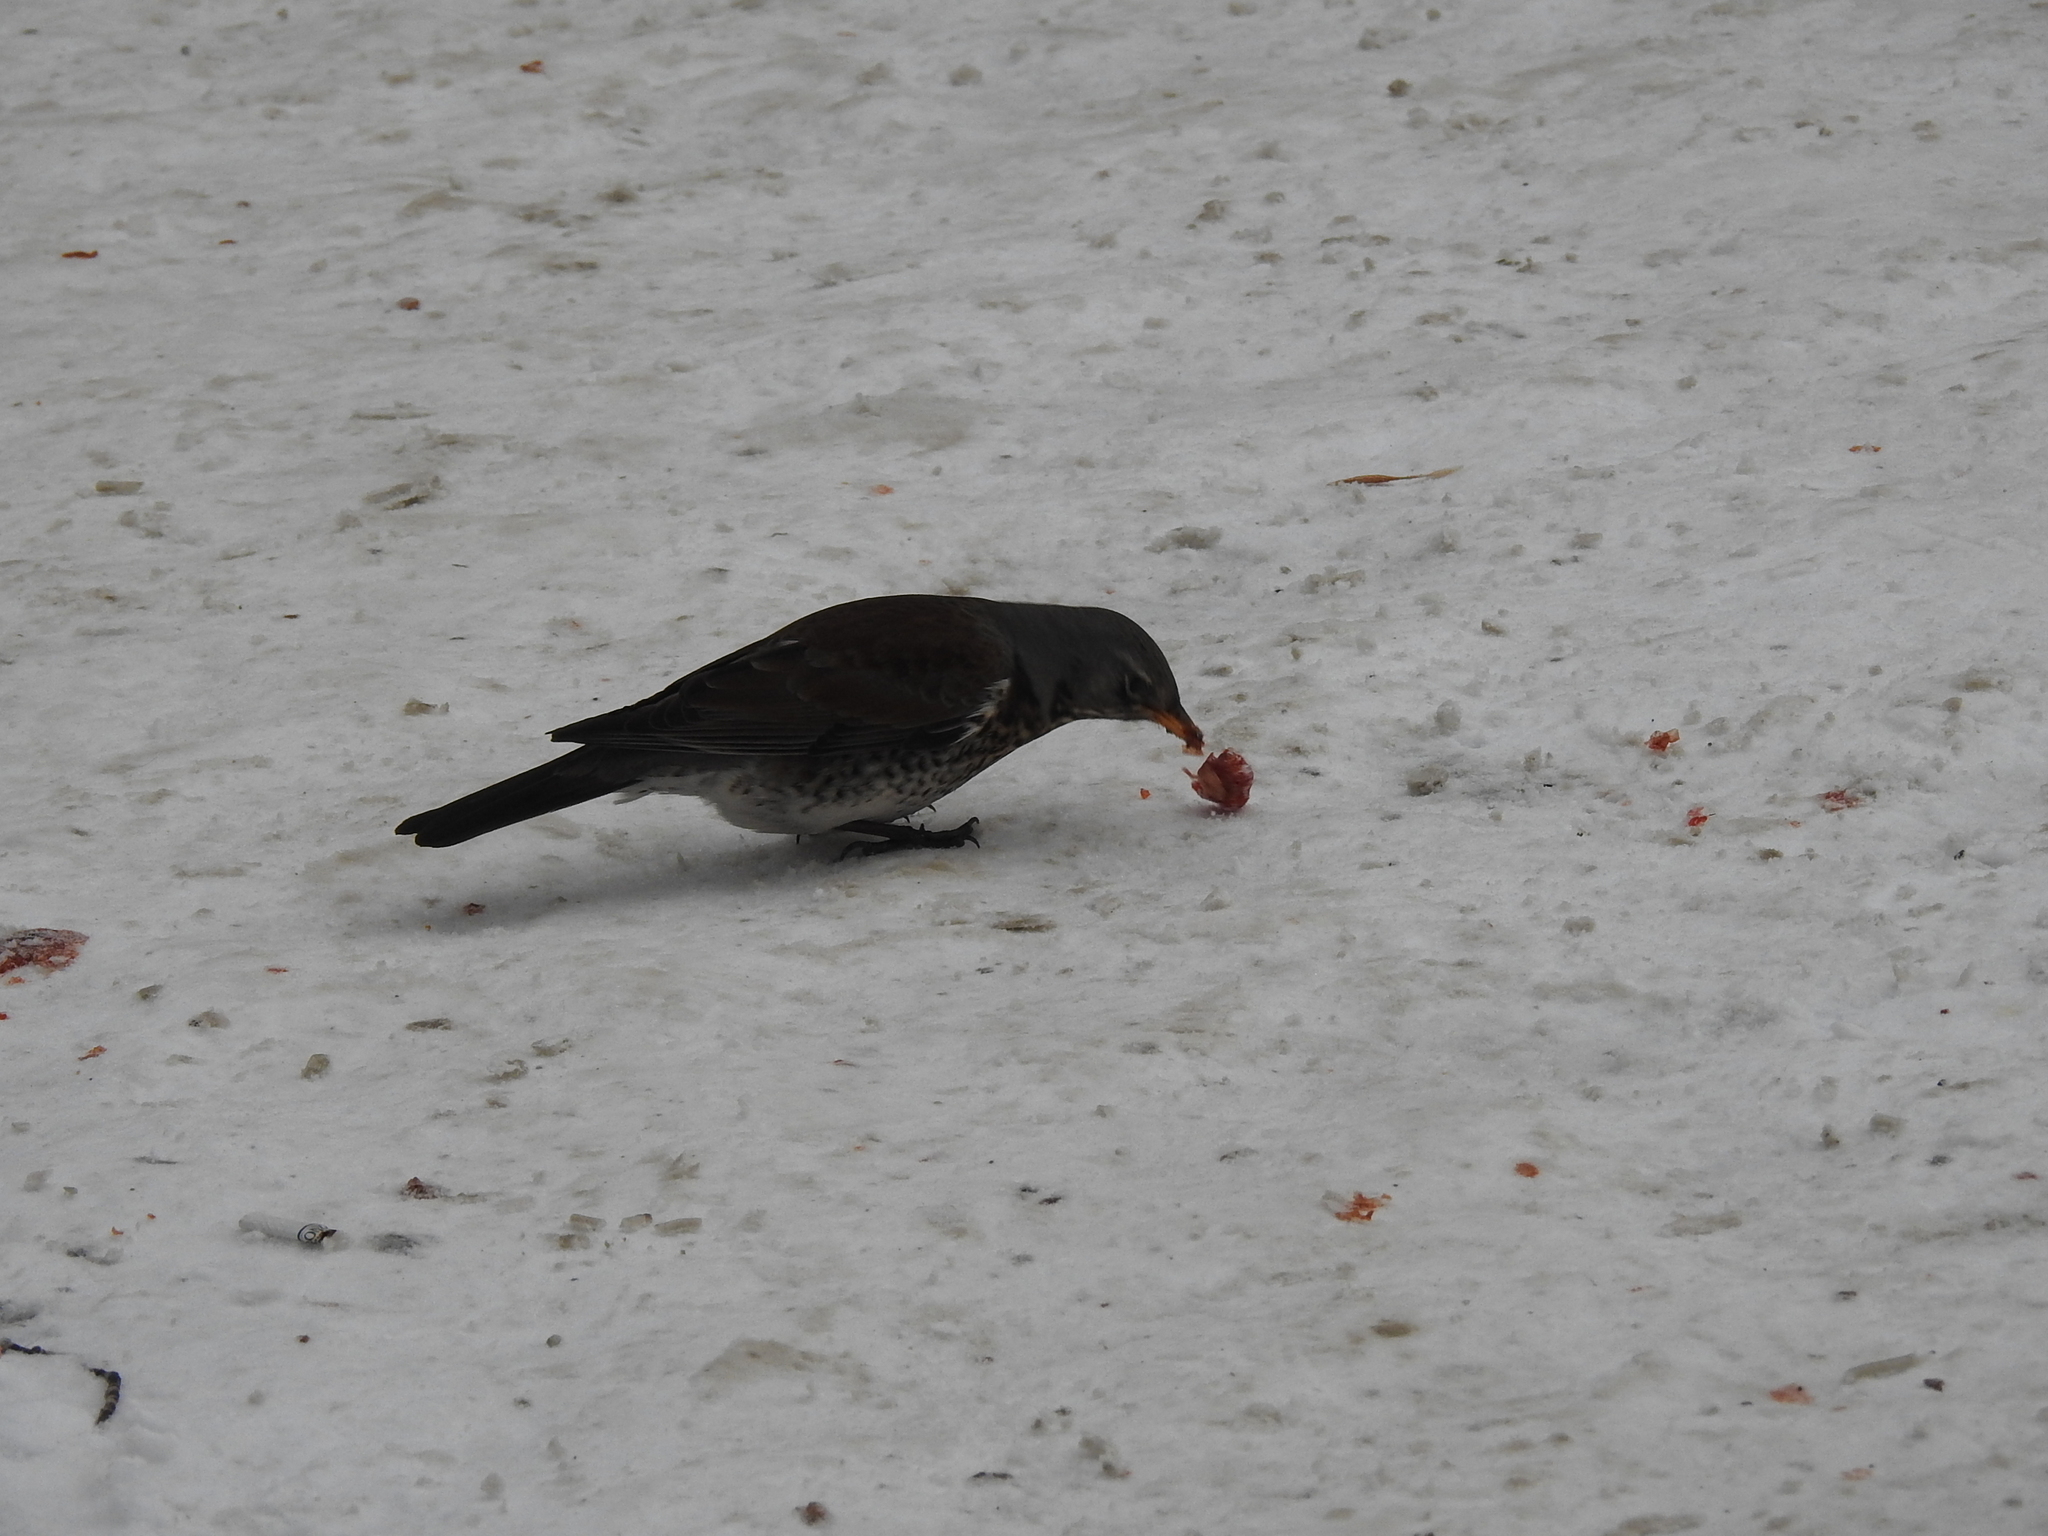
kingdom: Animalia
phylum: Chordata
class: Aves
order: Passeriformes
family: Turdidae
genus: Turdus
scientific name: Turdus pilaris
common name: Fieldfare
